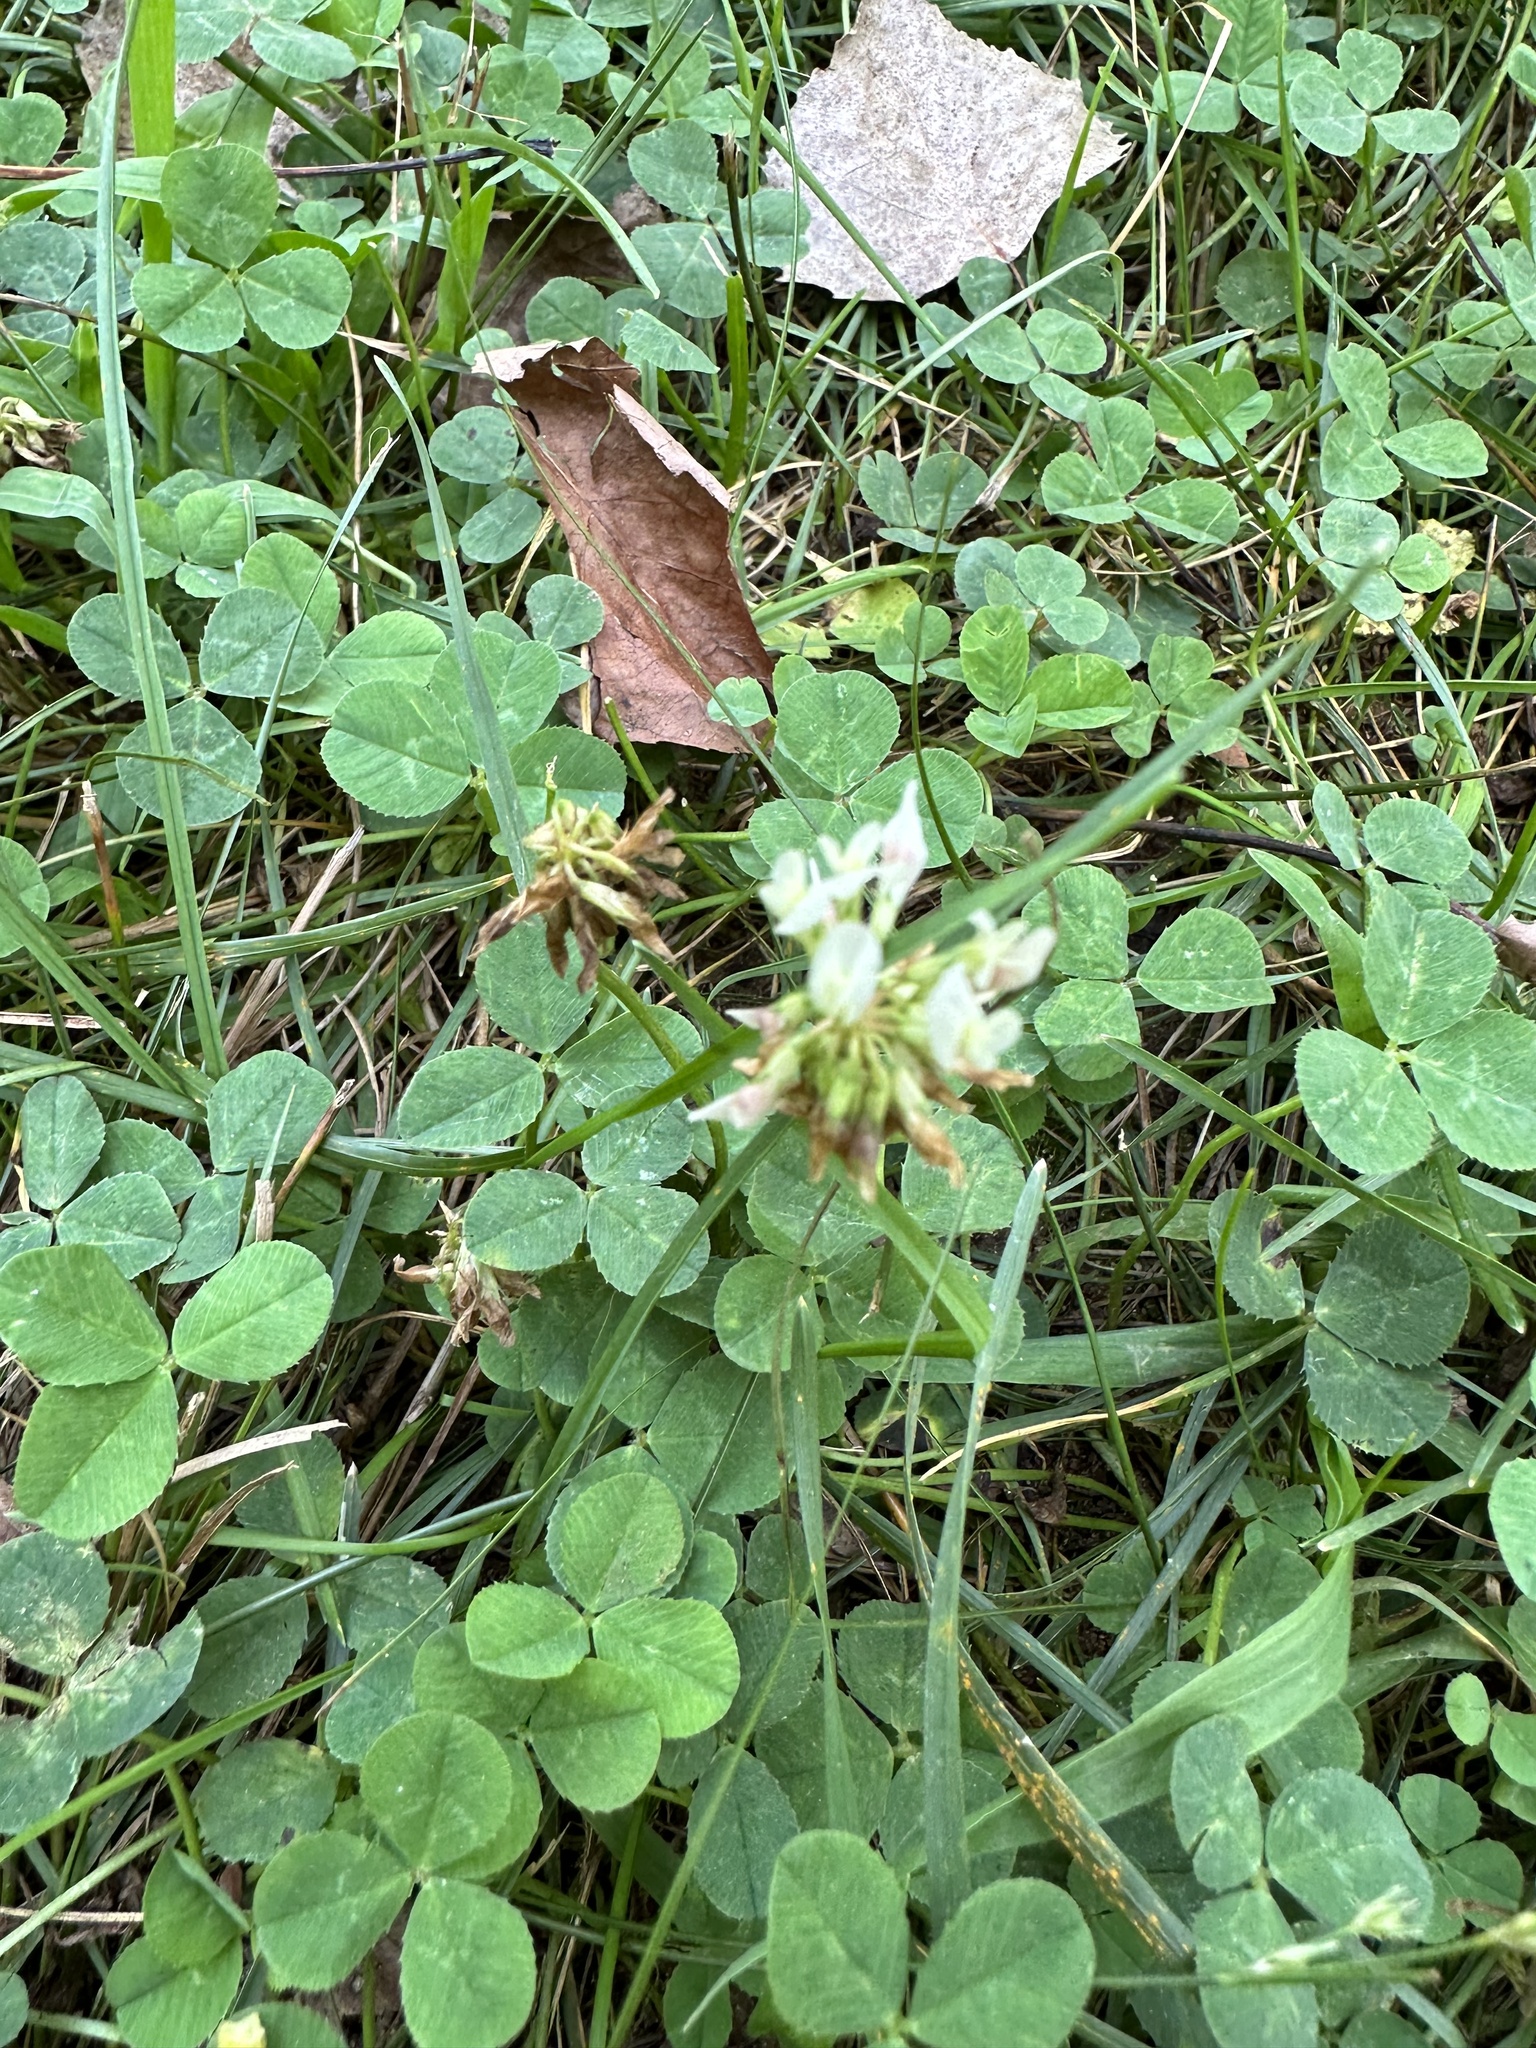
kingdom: Plantae
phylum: Tracheophyta
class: Magnoliopsida
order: Fabales
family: Fabaceae
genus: Trifolium
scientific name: Trifolium repens
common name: White clover
